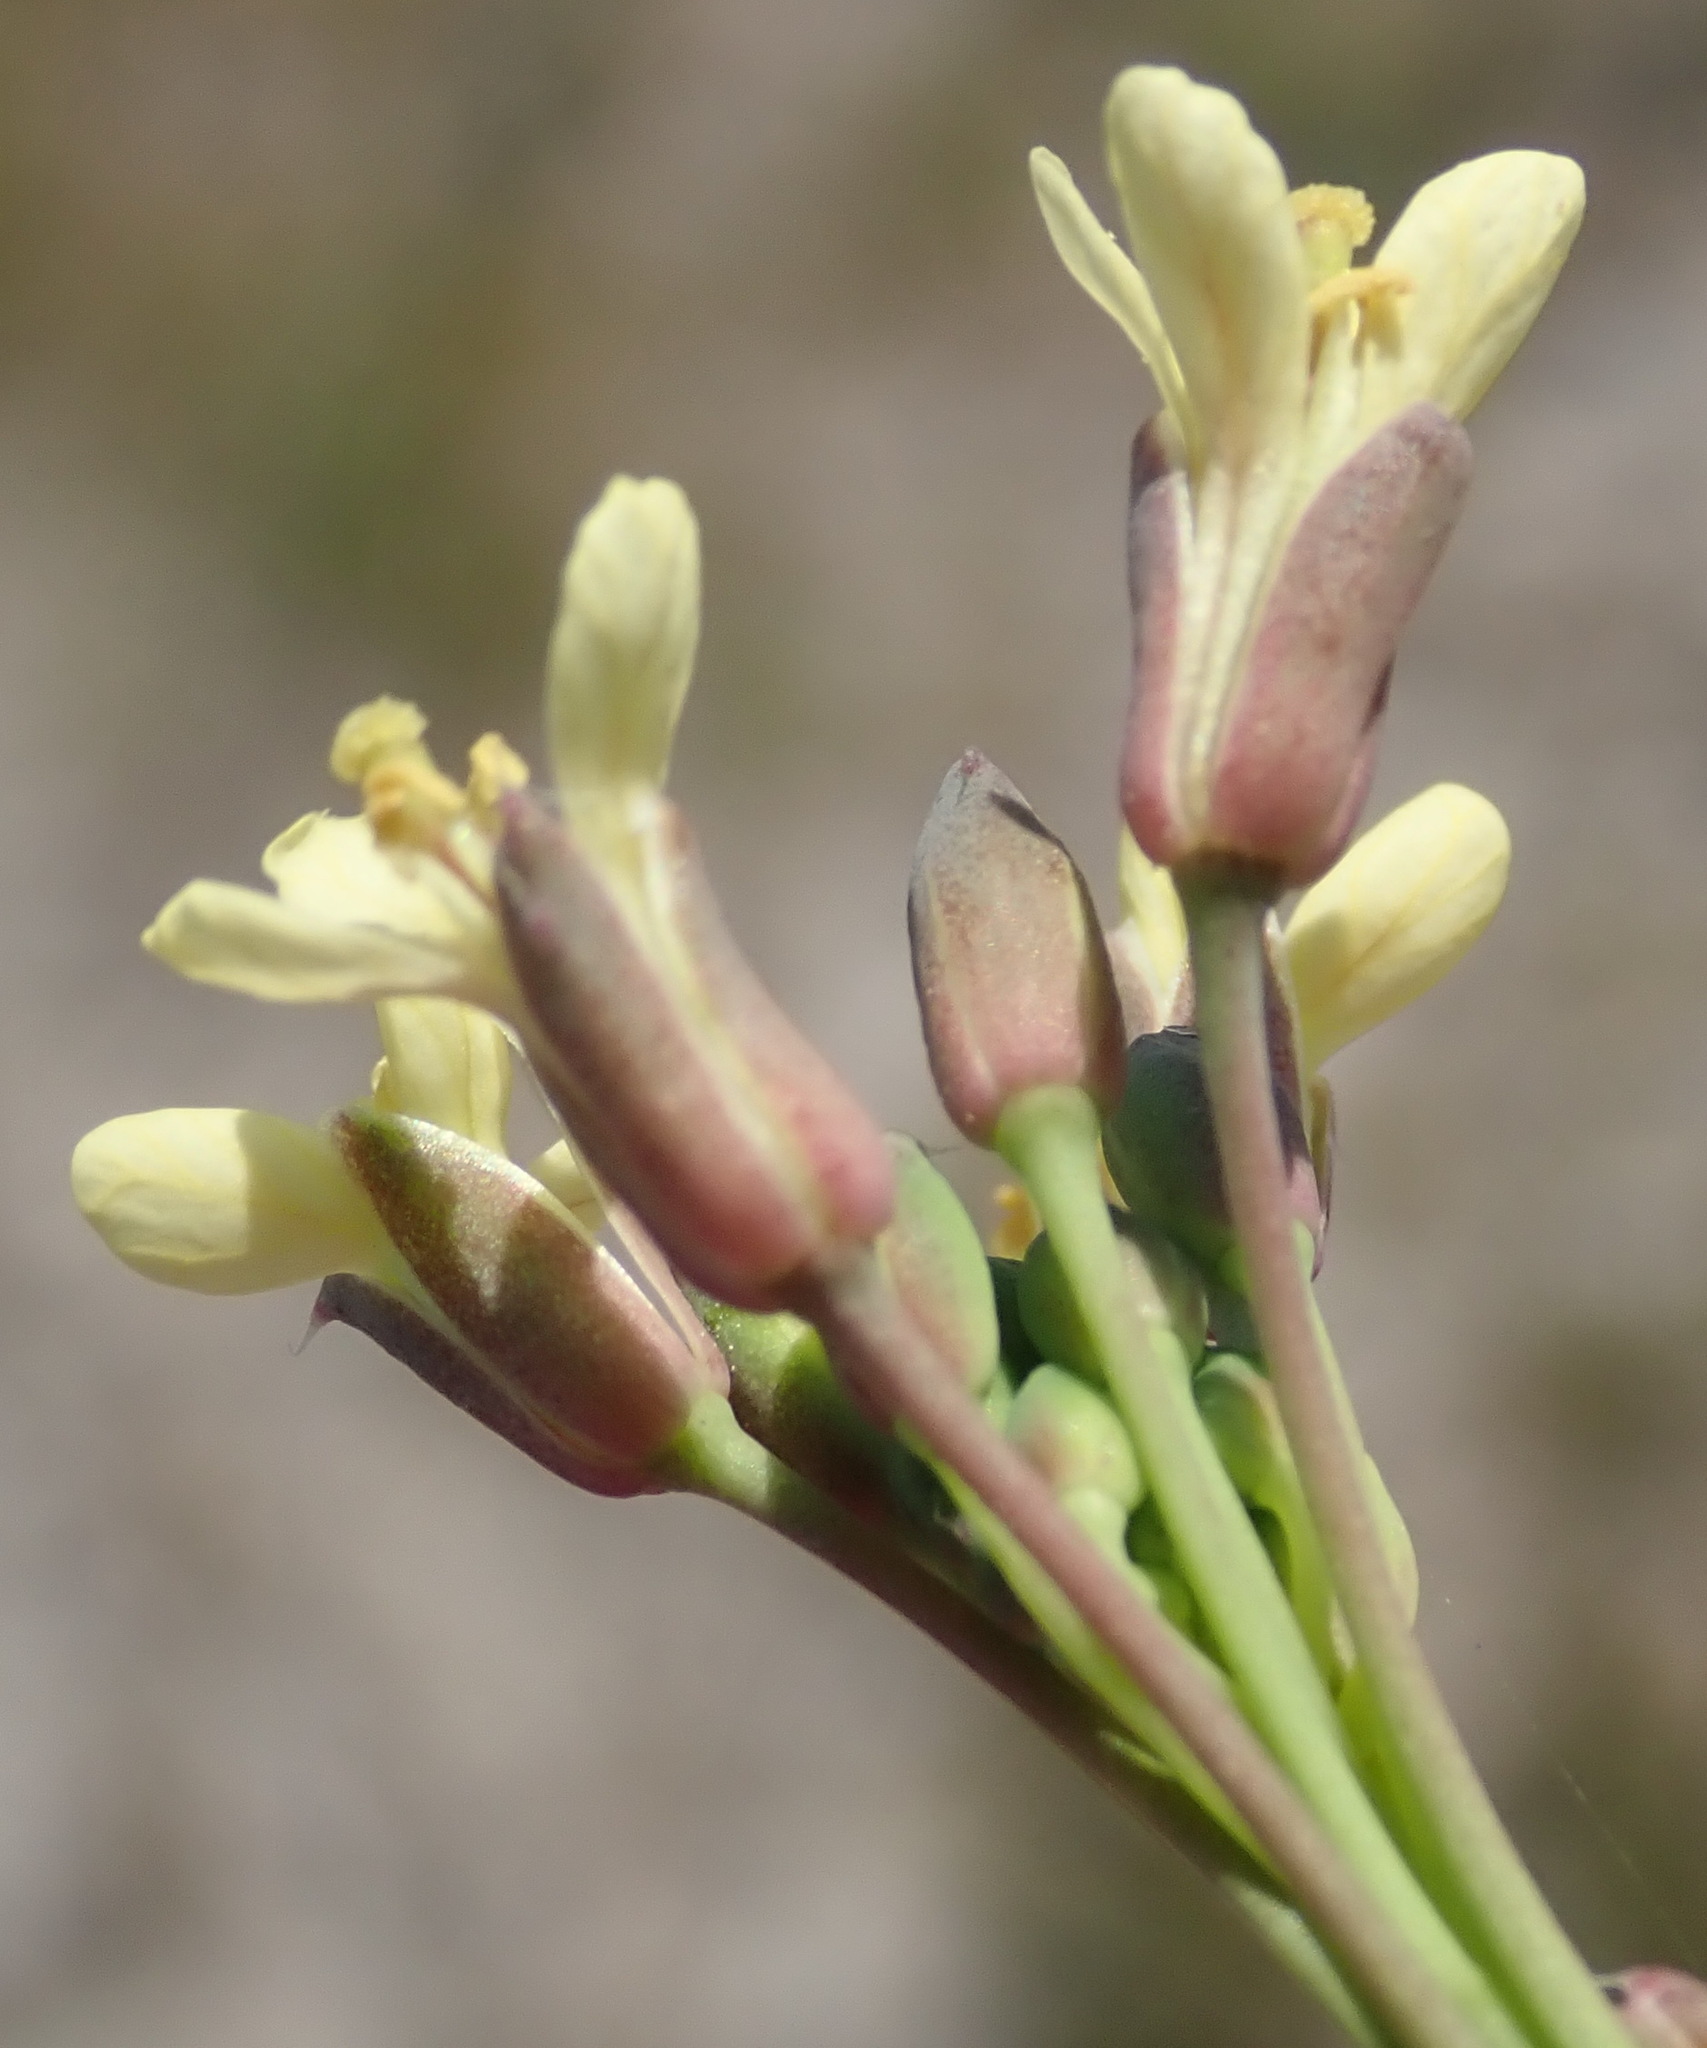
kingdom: Plantae
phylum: Tracheophyta
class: Magnoliopsida
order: Brassicales
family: Brassicaceae
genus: Brassica
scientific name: Brassica tournefortii
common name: Pale cabbage
